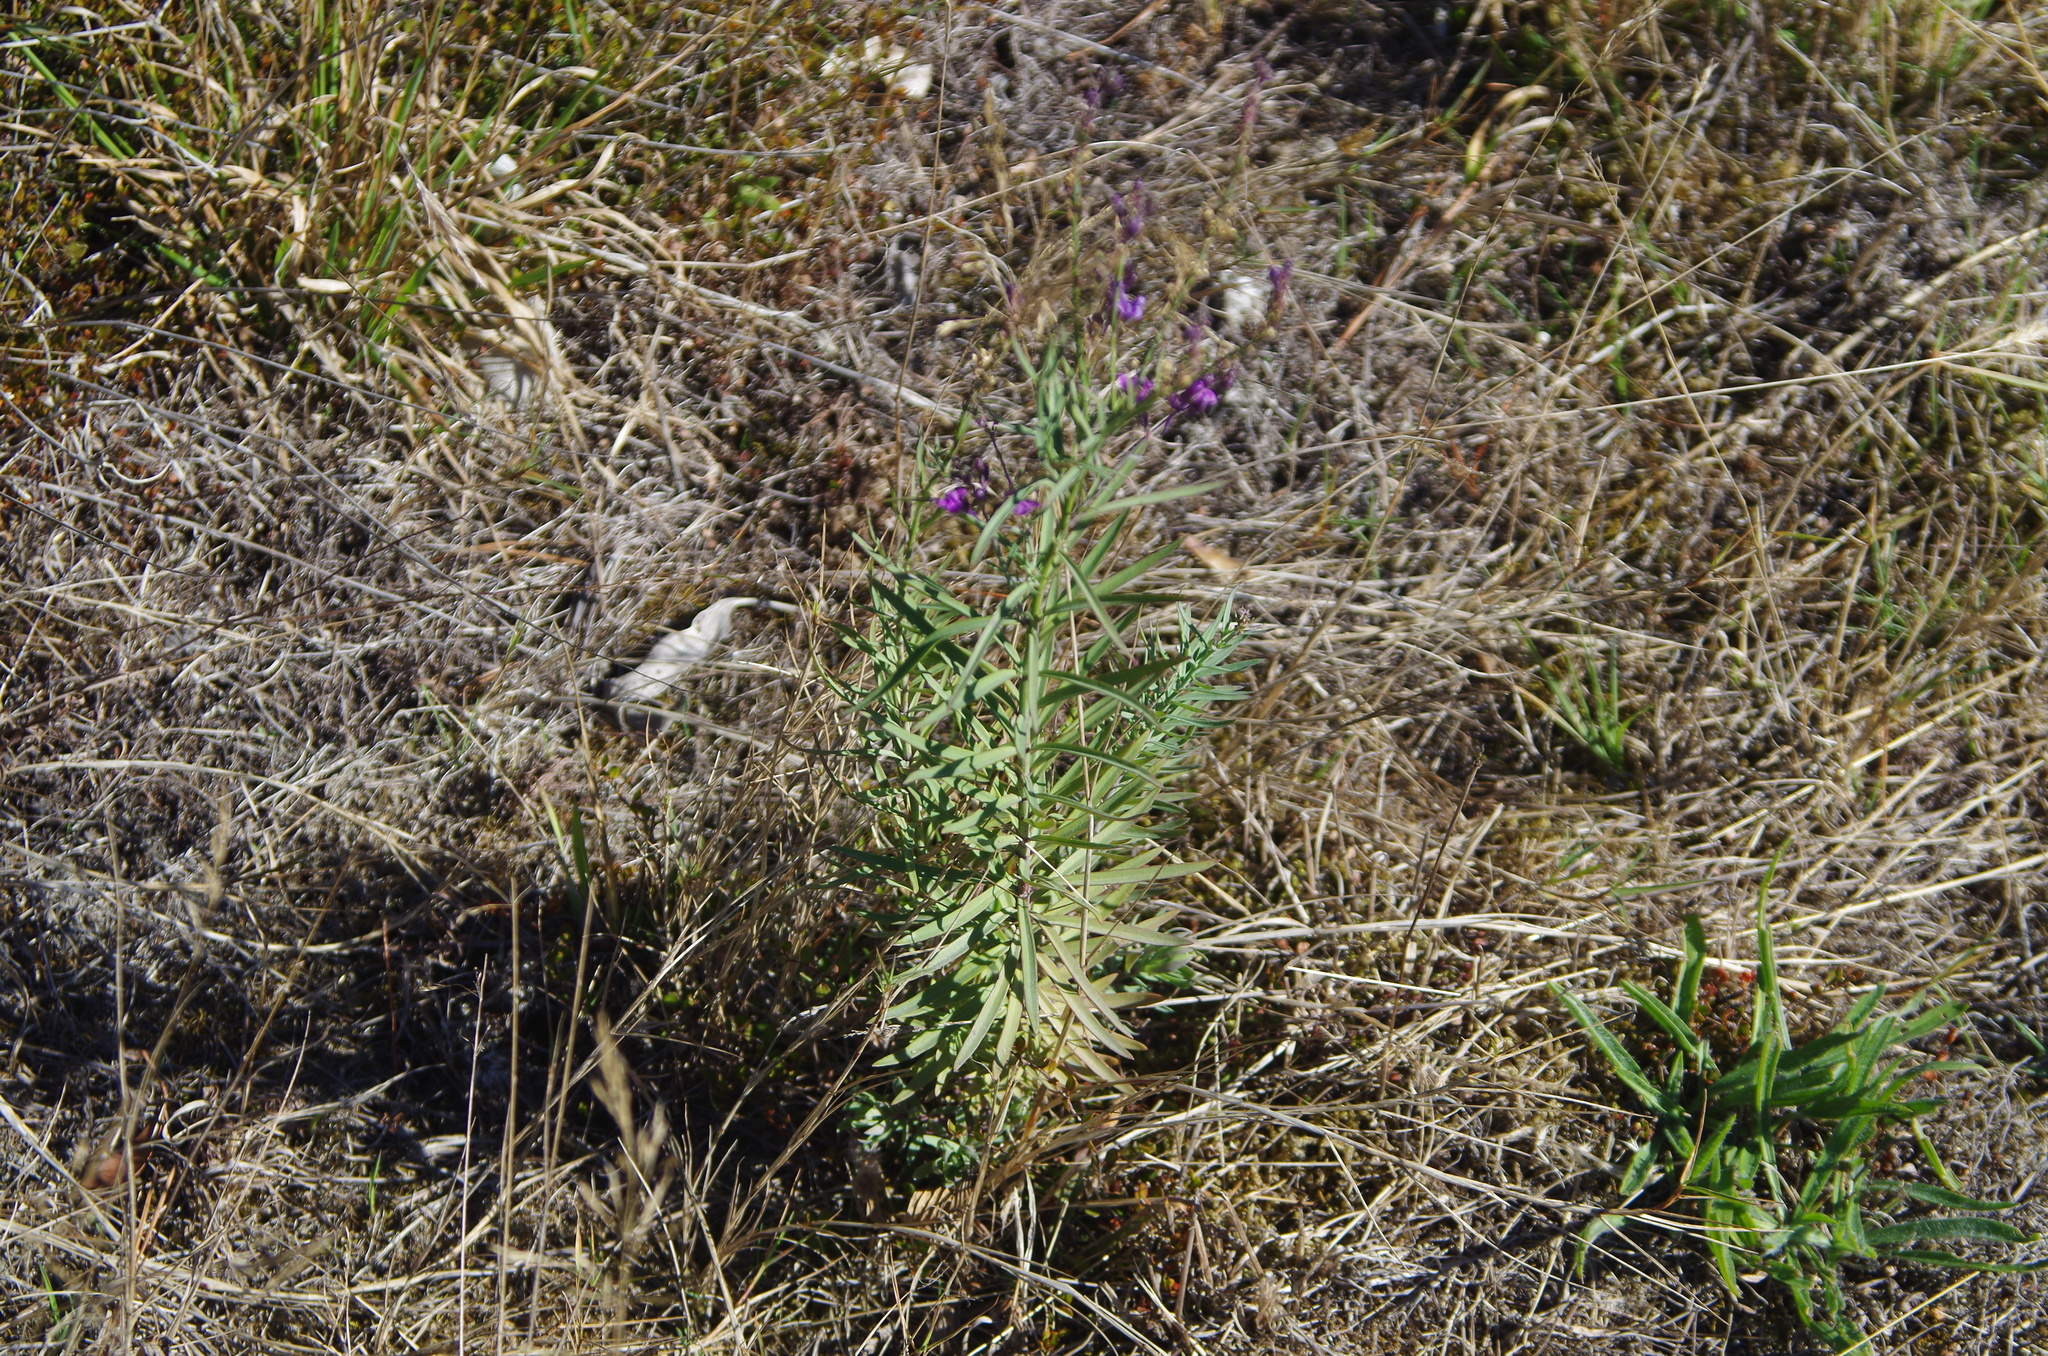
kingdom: Plantae
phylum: Tracheophyta
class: Magnoliopsida
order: Lamiales
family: Plantaginaceae
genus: Linaria
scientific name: Linaria purpurea
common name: Purple toadflax
